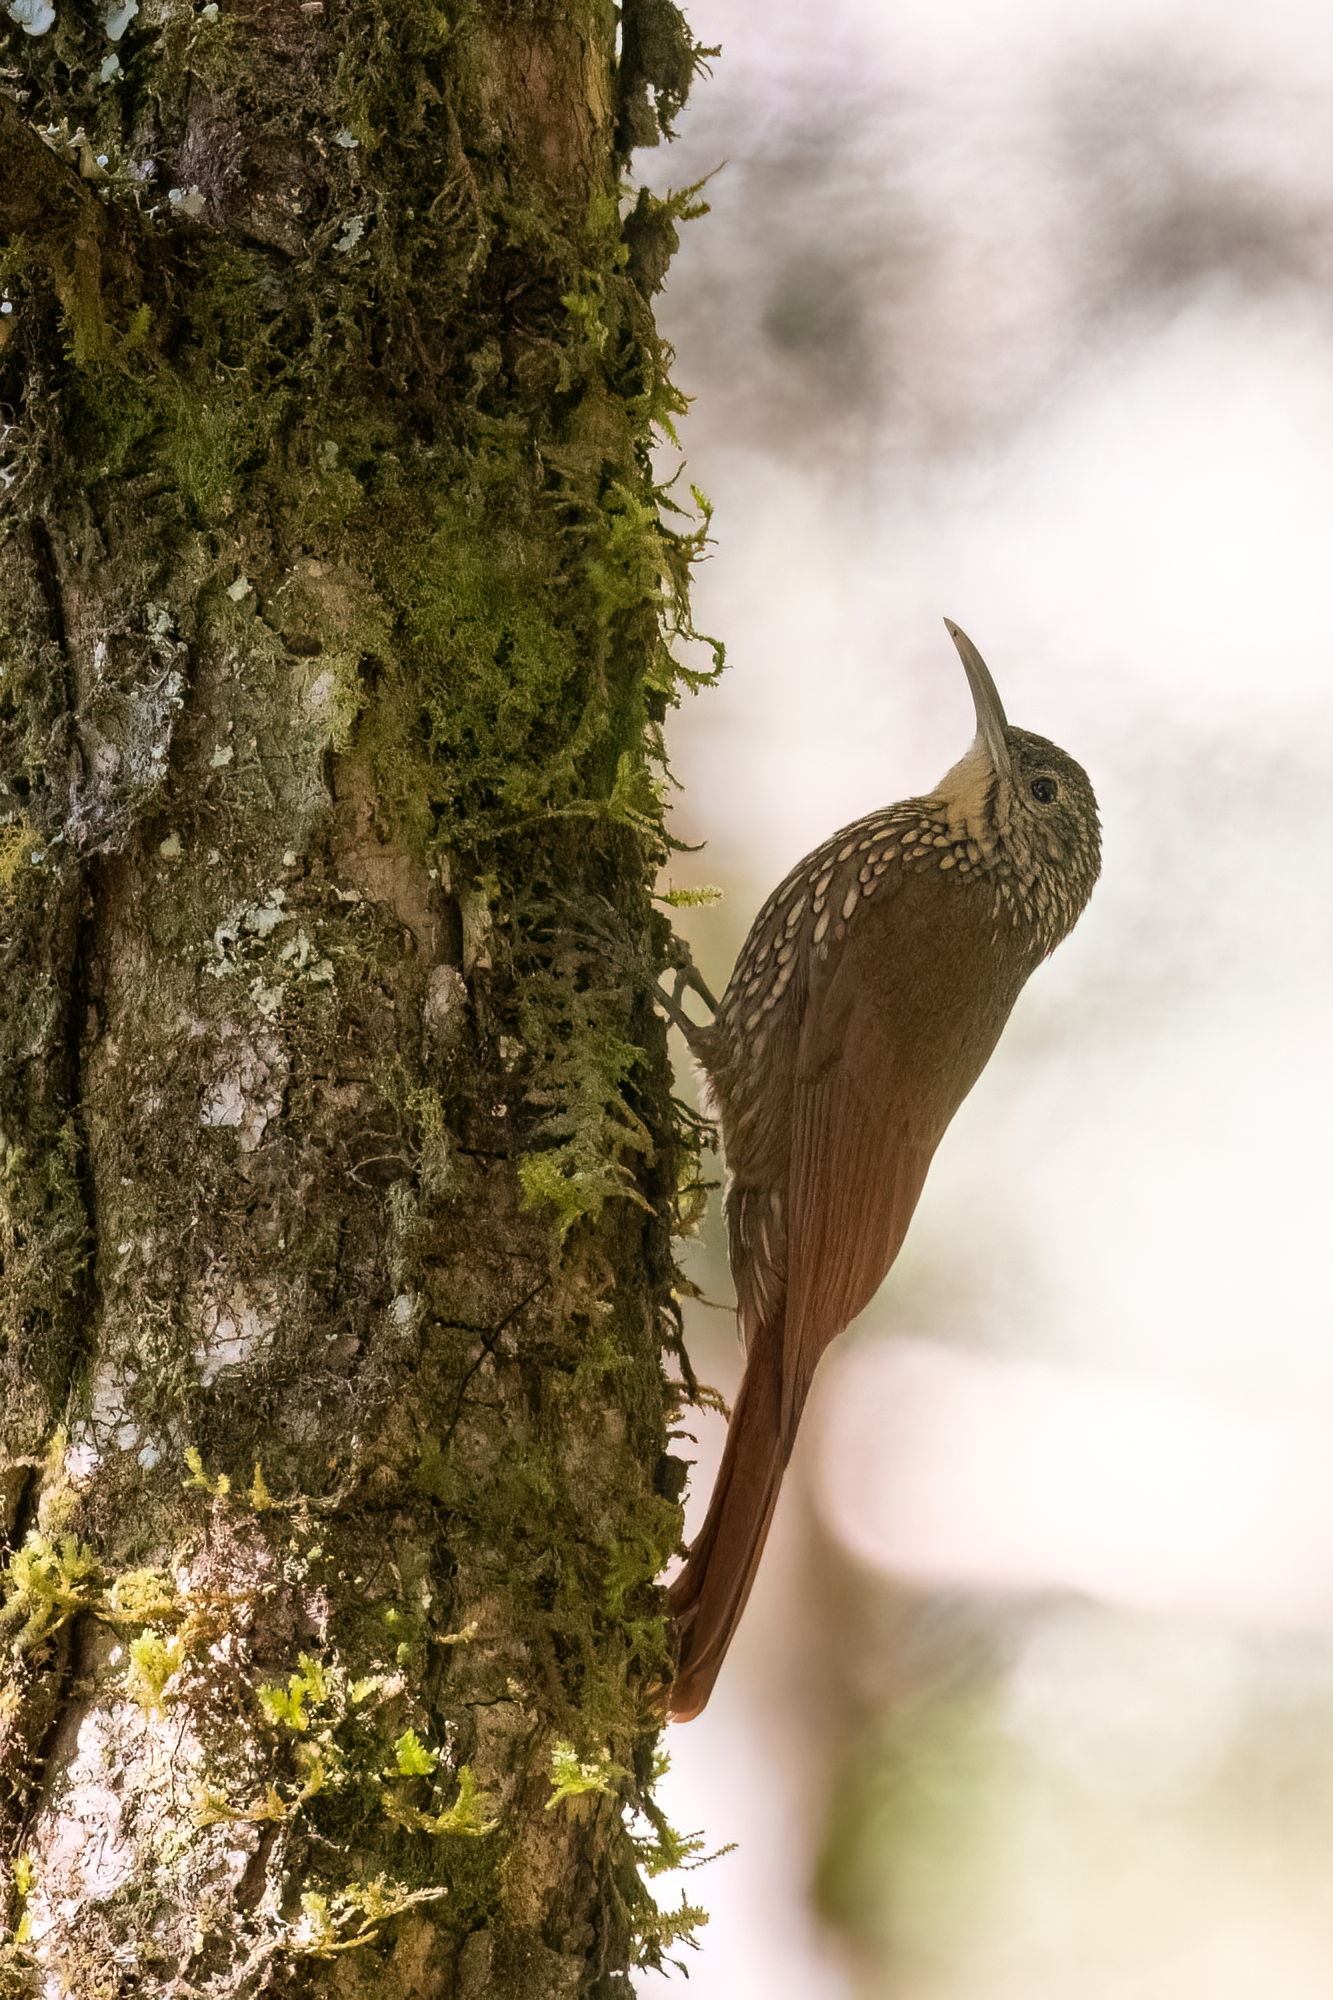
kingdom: Animalia
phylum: Chordata
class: Aves
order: Passeriformes
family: Furnariidae
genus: Lepidocolaptes
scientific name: Lepidocolaptes affinis
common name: Spot-crowned woodcreeper
